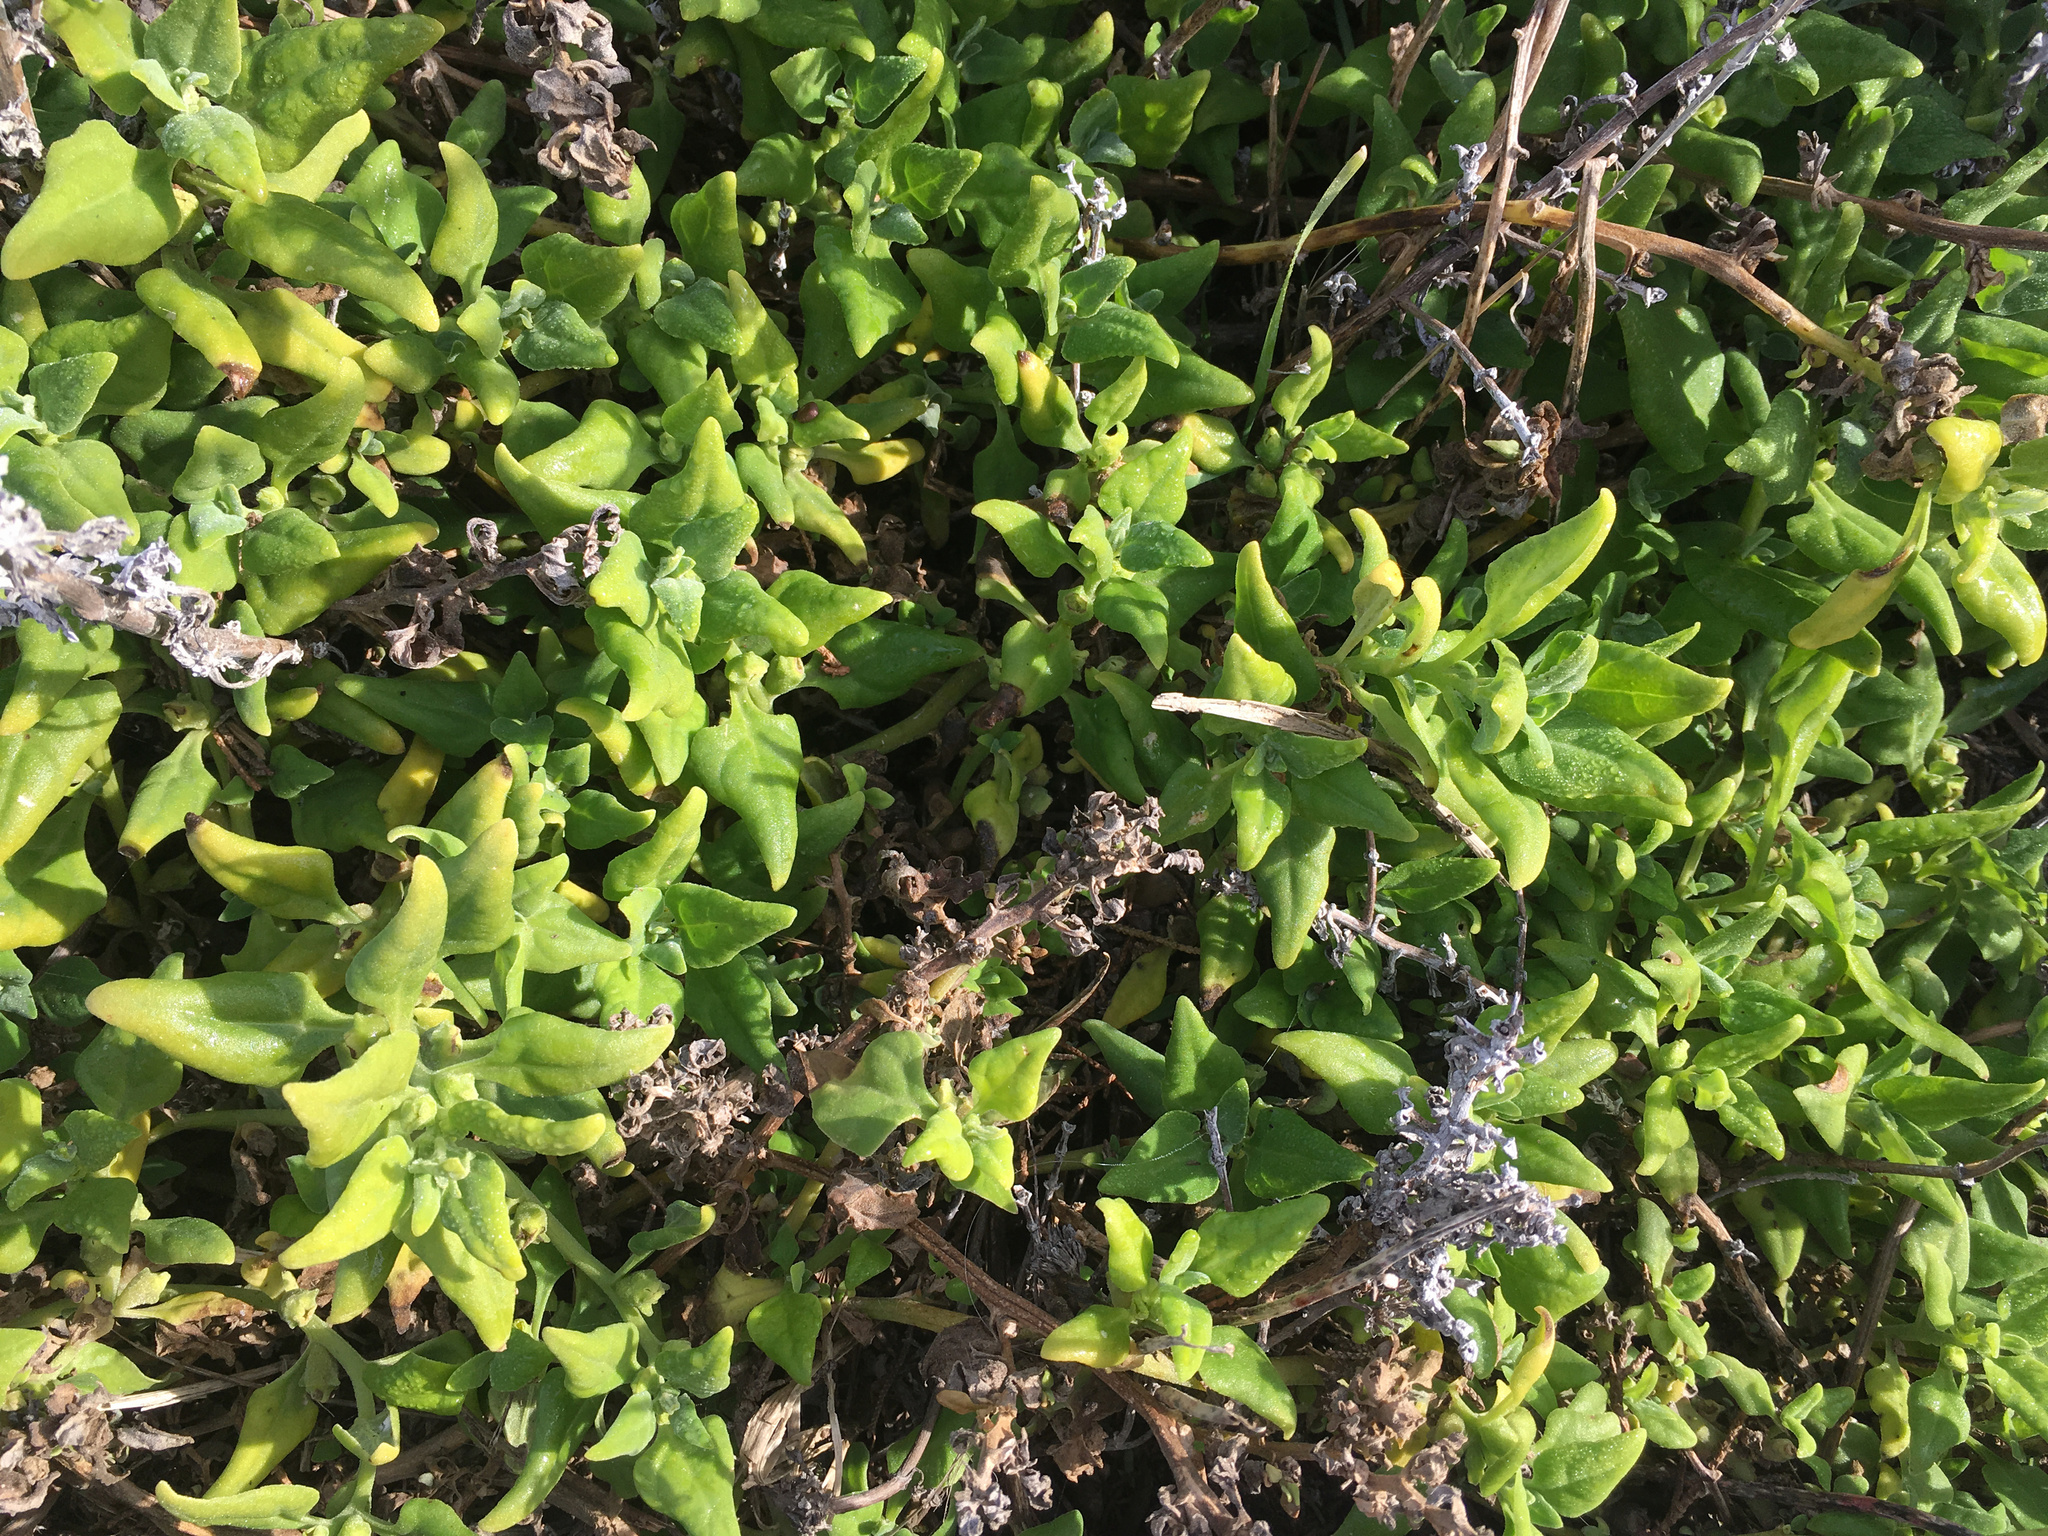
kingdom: Plantae
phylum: Tracheophyta
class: Magnoliopsida
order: Caryophyllales
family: Aizoaceae
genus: Tetragonia
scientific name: Tetragonia tetragonoides
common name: New zealand-spinach
